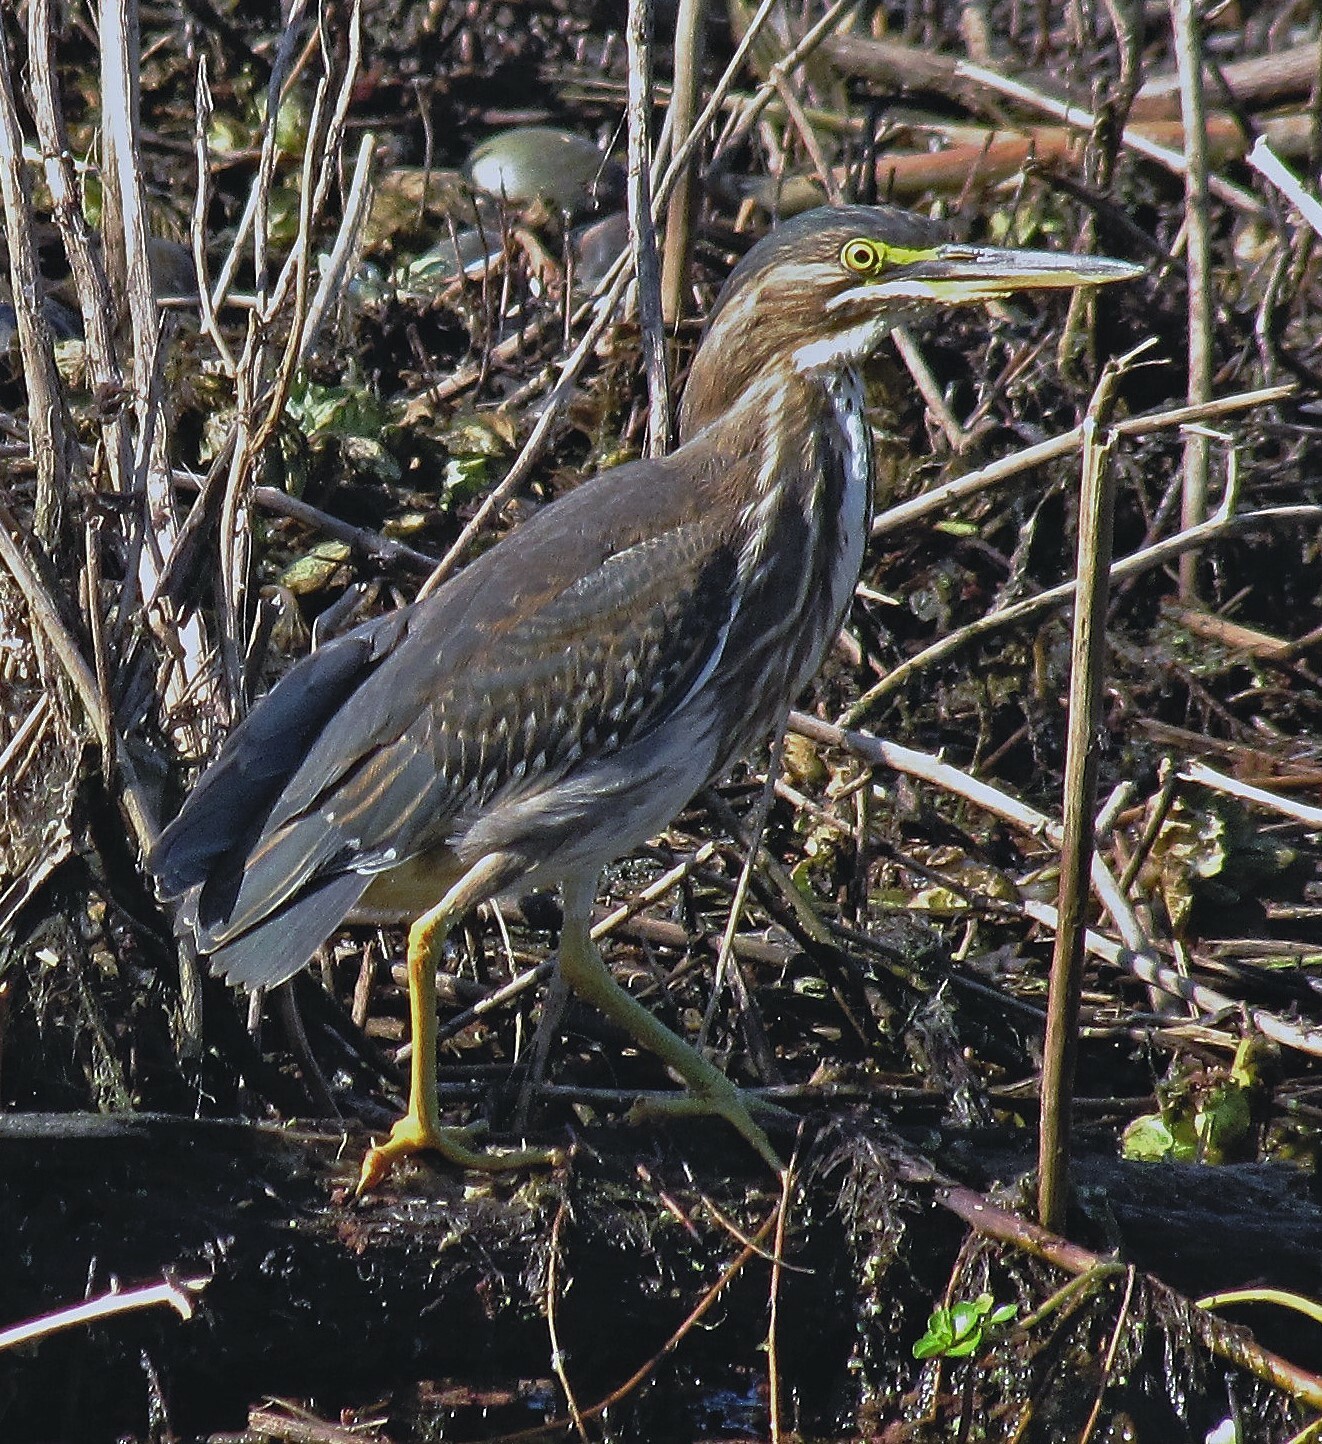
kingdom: Animalia
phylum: Chordata
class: Aves
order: Pelecaniformes
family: Ardeidae
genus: Butorides
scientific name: Butorides striata
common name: Striated heron
